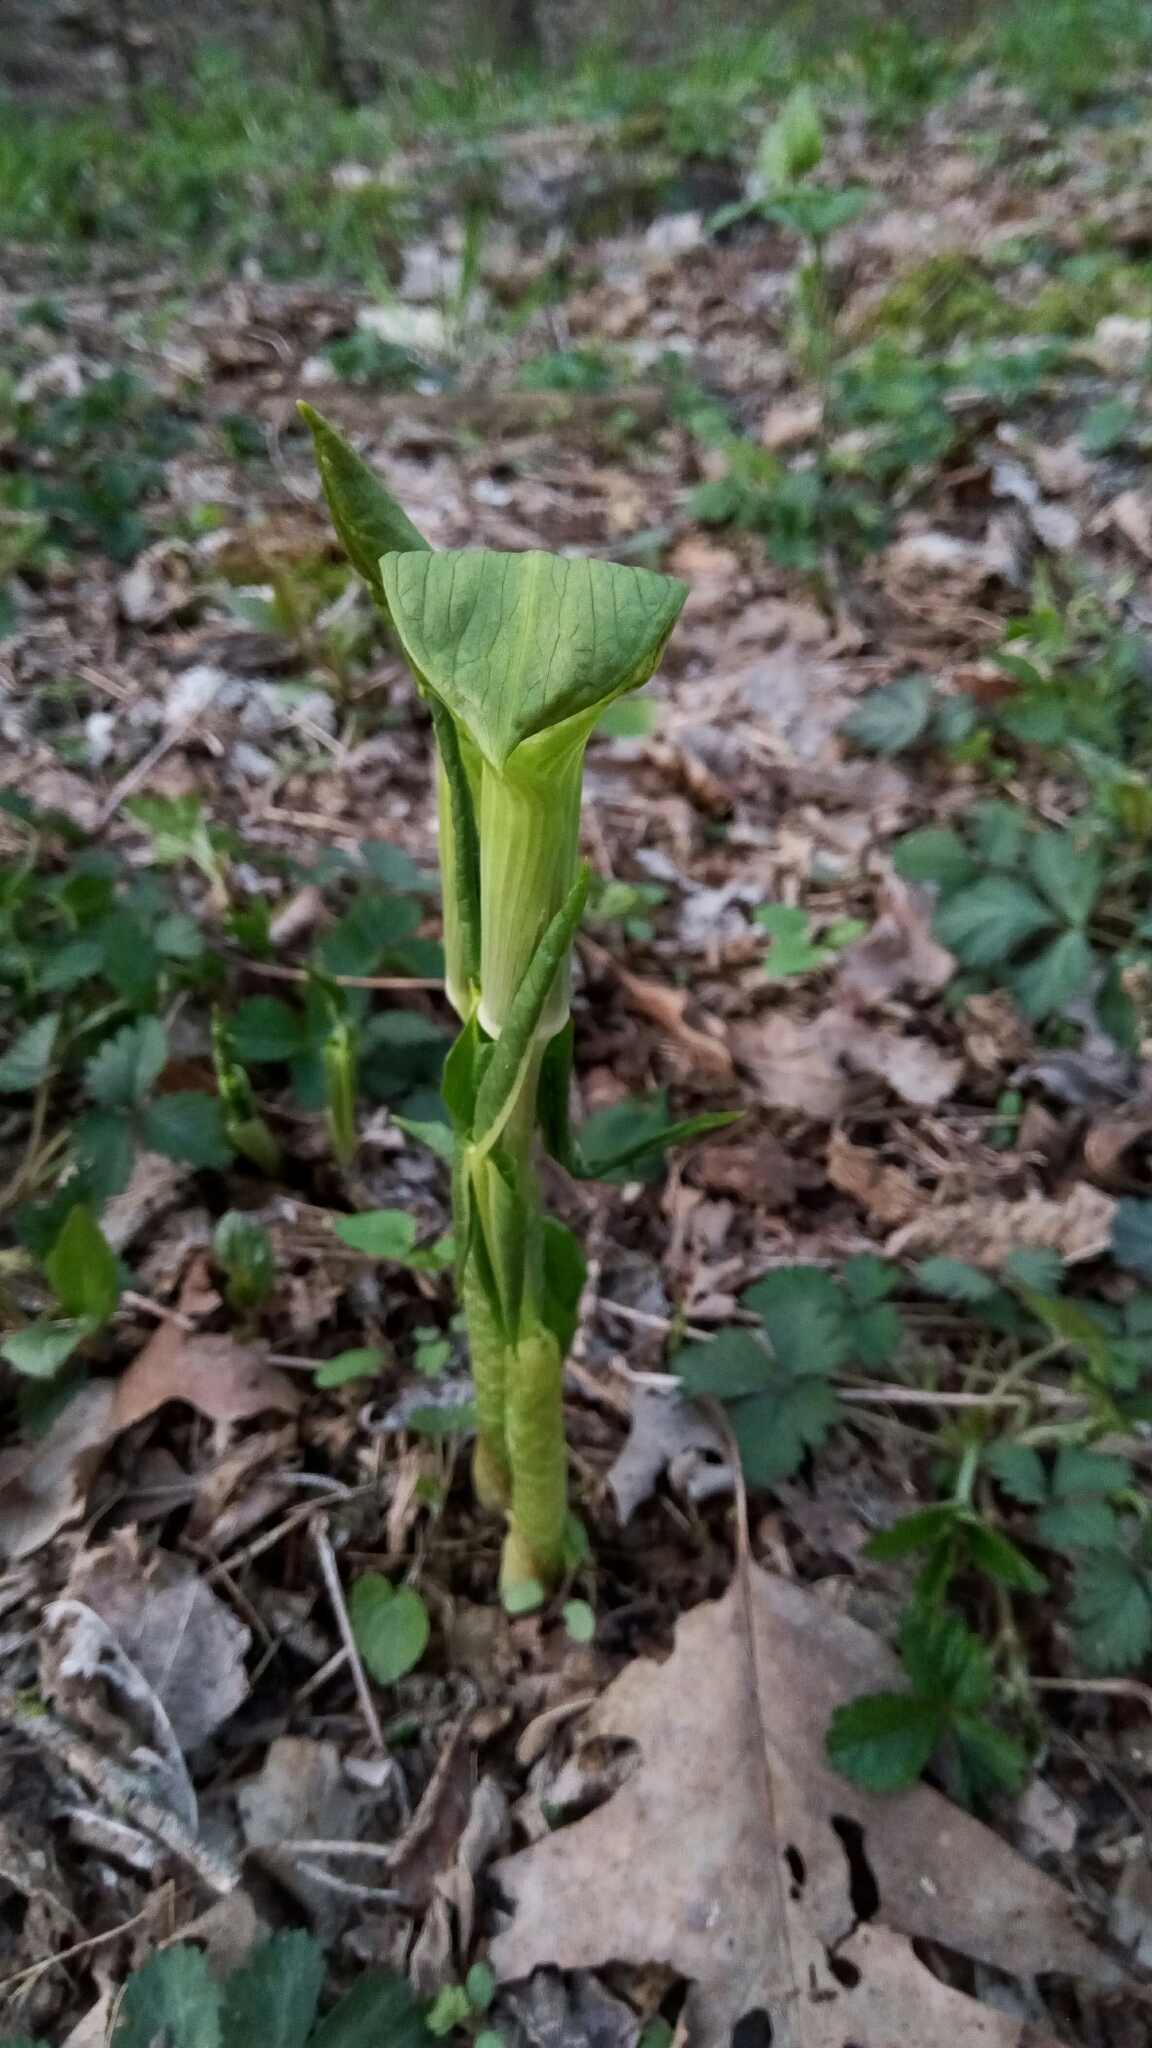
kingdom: Plantae
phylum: Tracheophyta
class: Liliopsida
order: Alismatales
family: Araceae
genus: Arisaema
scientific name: Arisaema triphyllum
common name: Jack-in-the-pulpit
